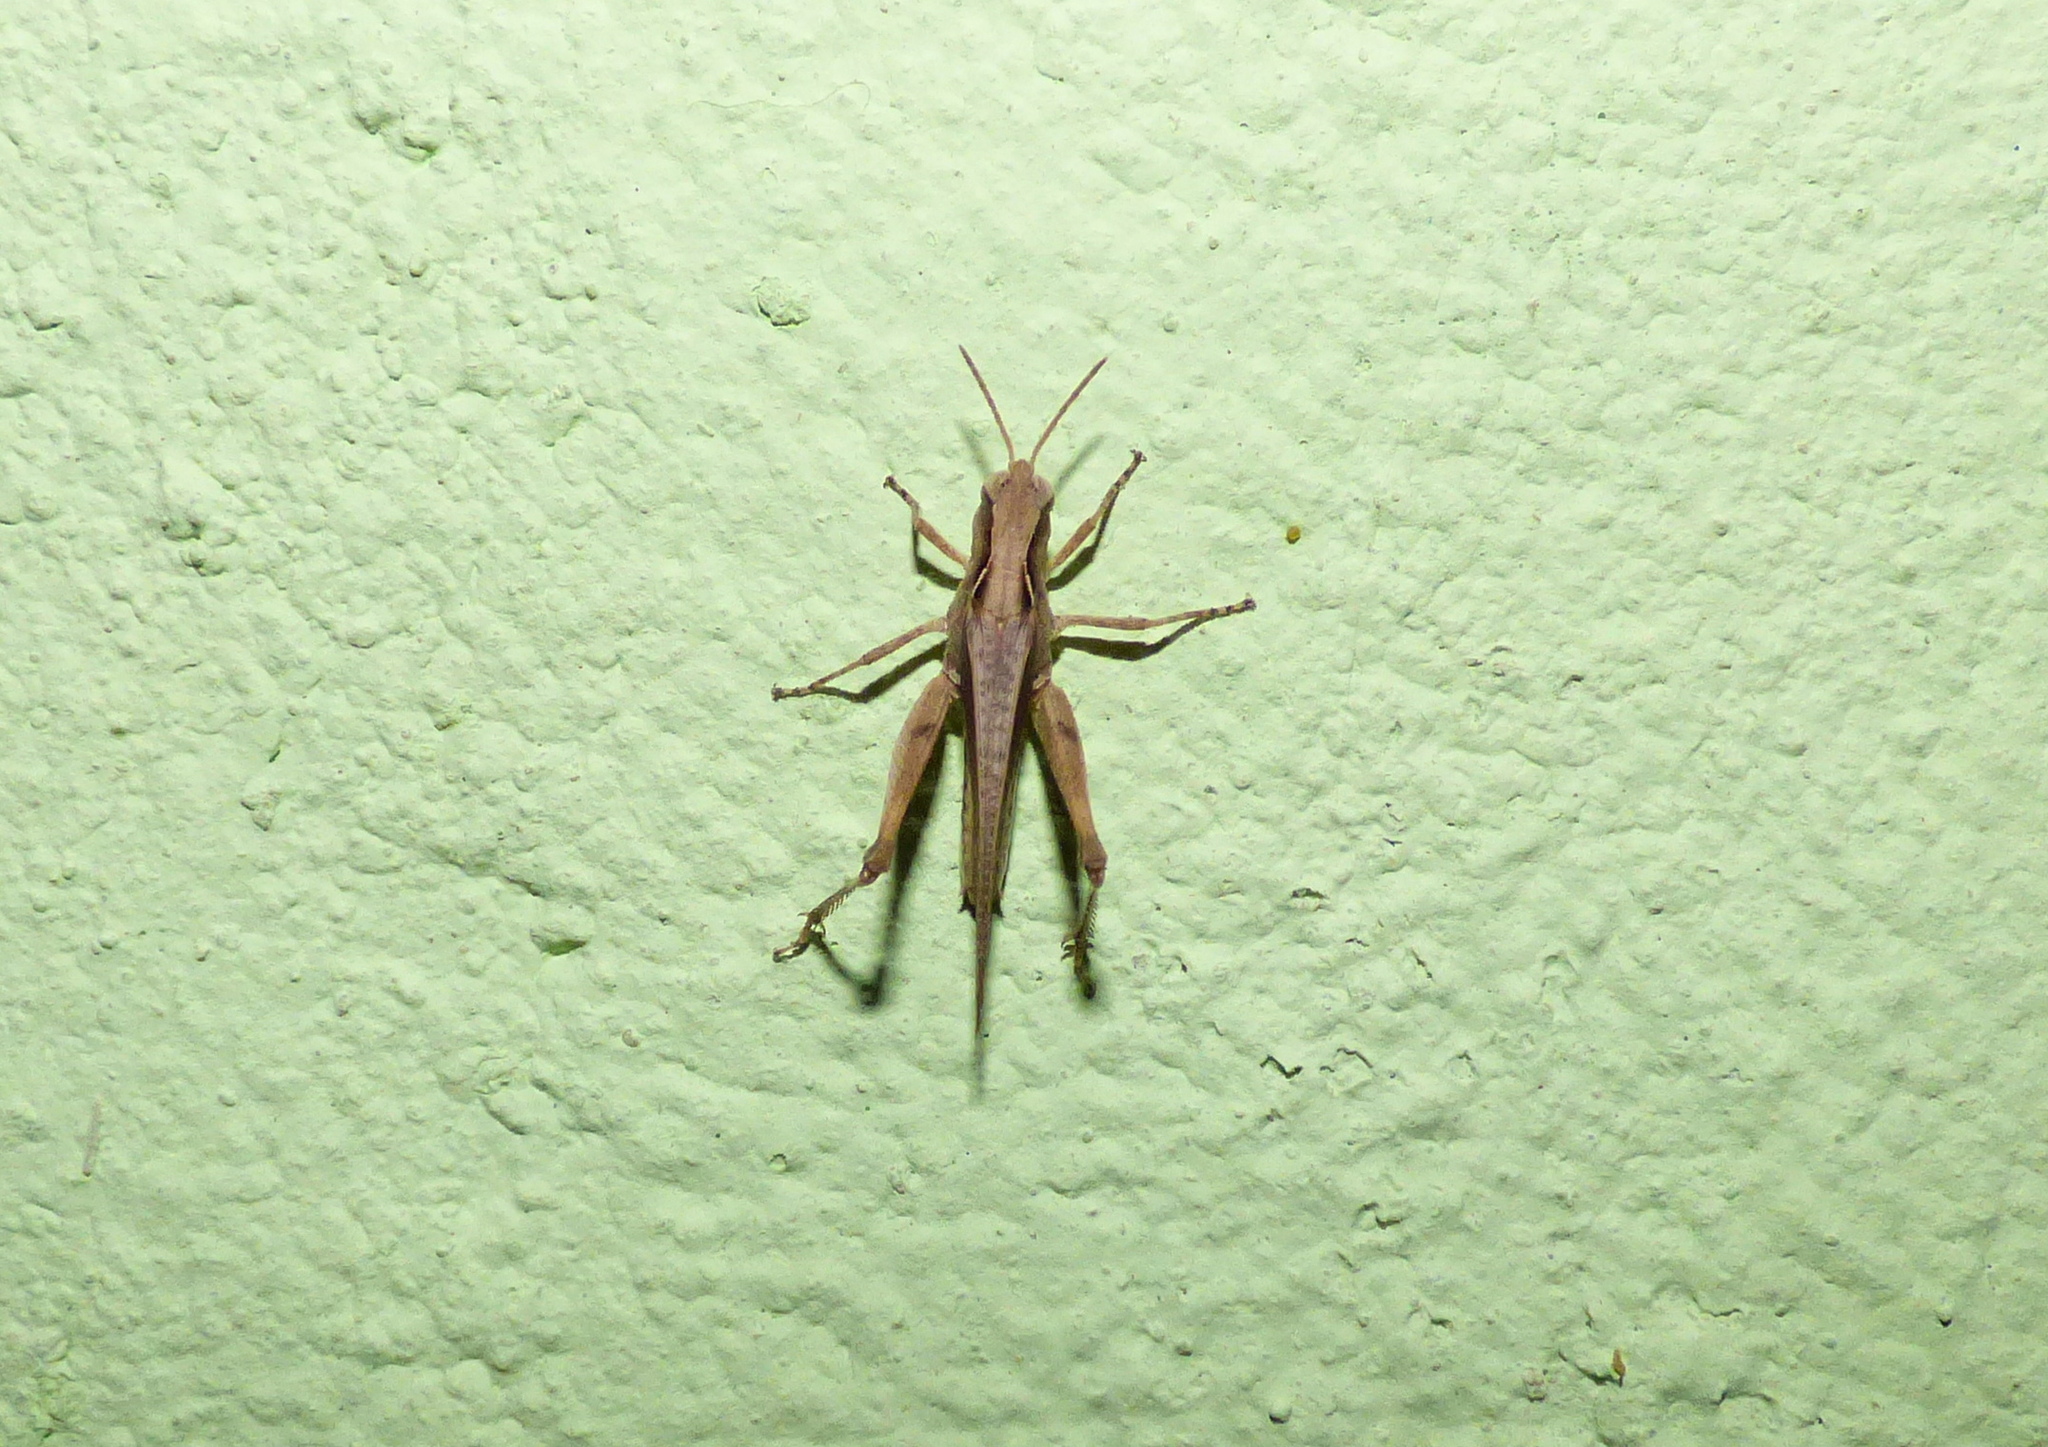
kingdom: Animalia
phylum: Arthropoda
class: Insecta
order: Orthoptera
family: Acrididae
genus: Orphulella
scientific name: Orphulella punctata
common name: Slant-faced grasshopper
